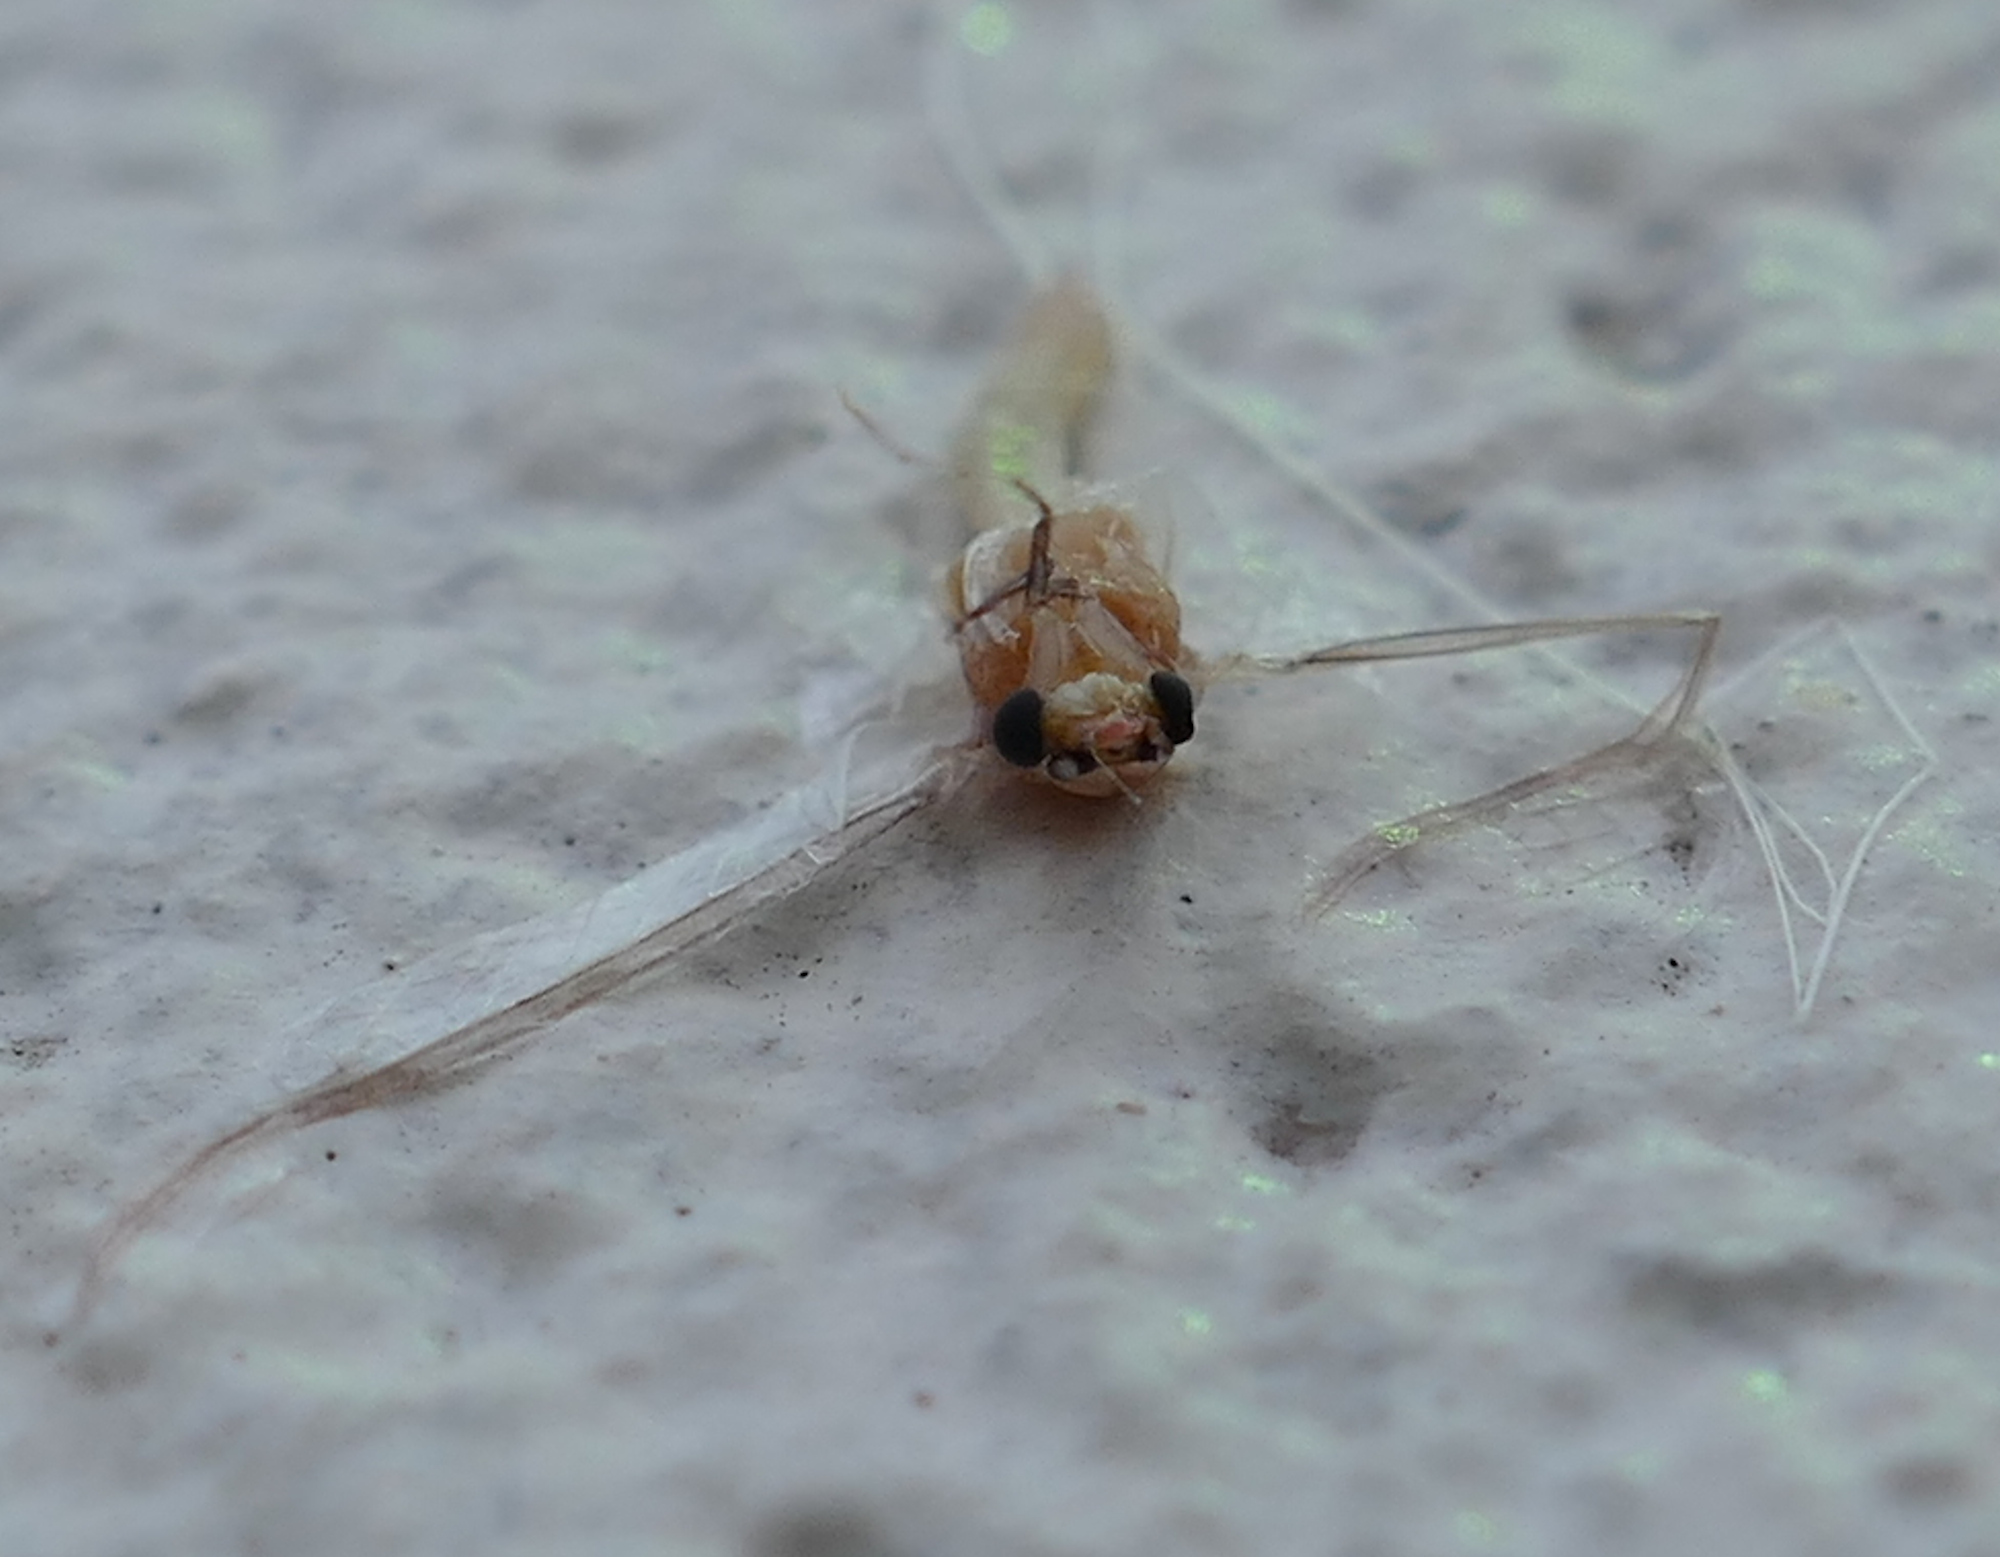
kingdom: Animalia
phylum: Arthropoda
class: Insecta
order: Ephemeroptera
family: Polymitarcyidae
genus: Ephoron
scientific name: Ephoron leukon
